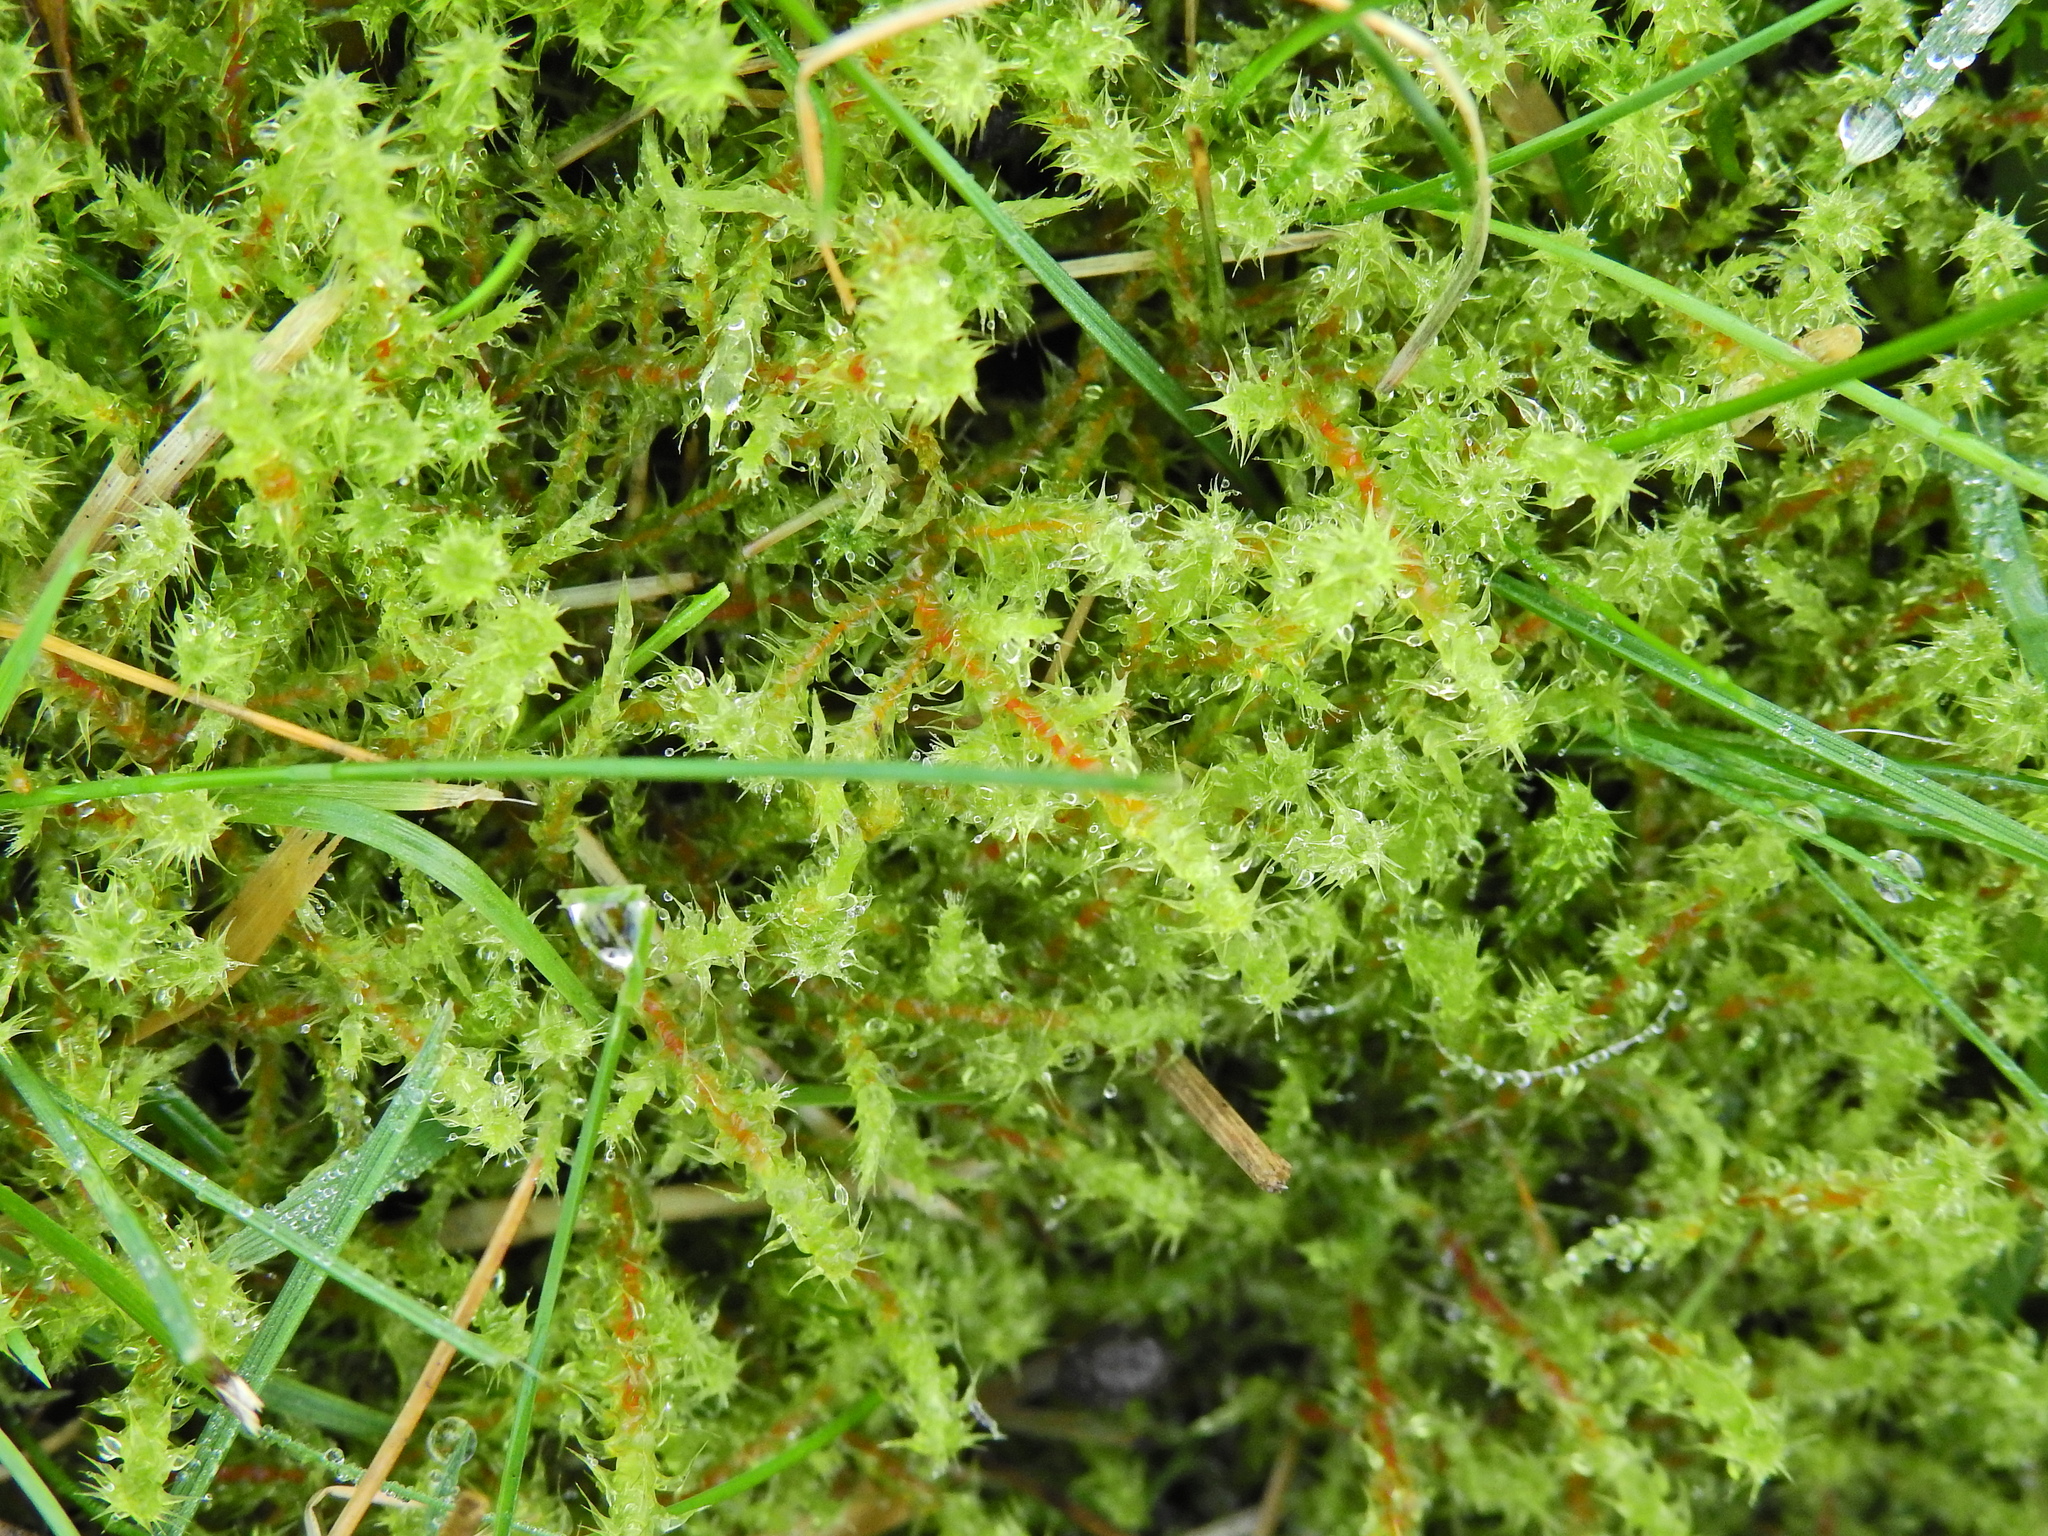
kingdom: Plantae
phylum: Bryophyta
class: Bryopsida
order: Hypnales
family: Hylocomiaceae
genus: Rhytidiadelphus
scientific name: Rhytidiadelphus squarrosus
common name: Springy turf-moss
